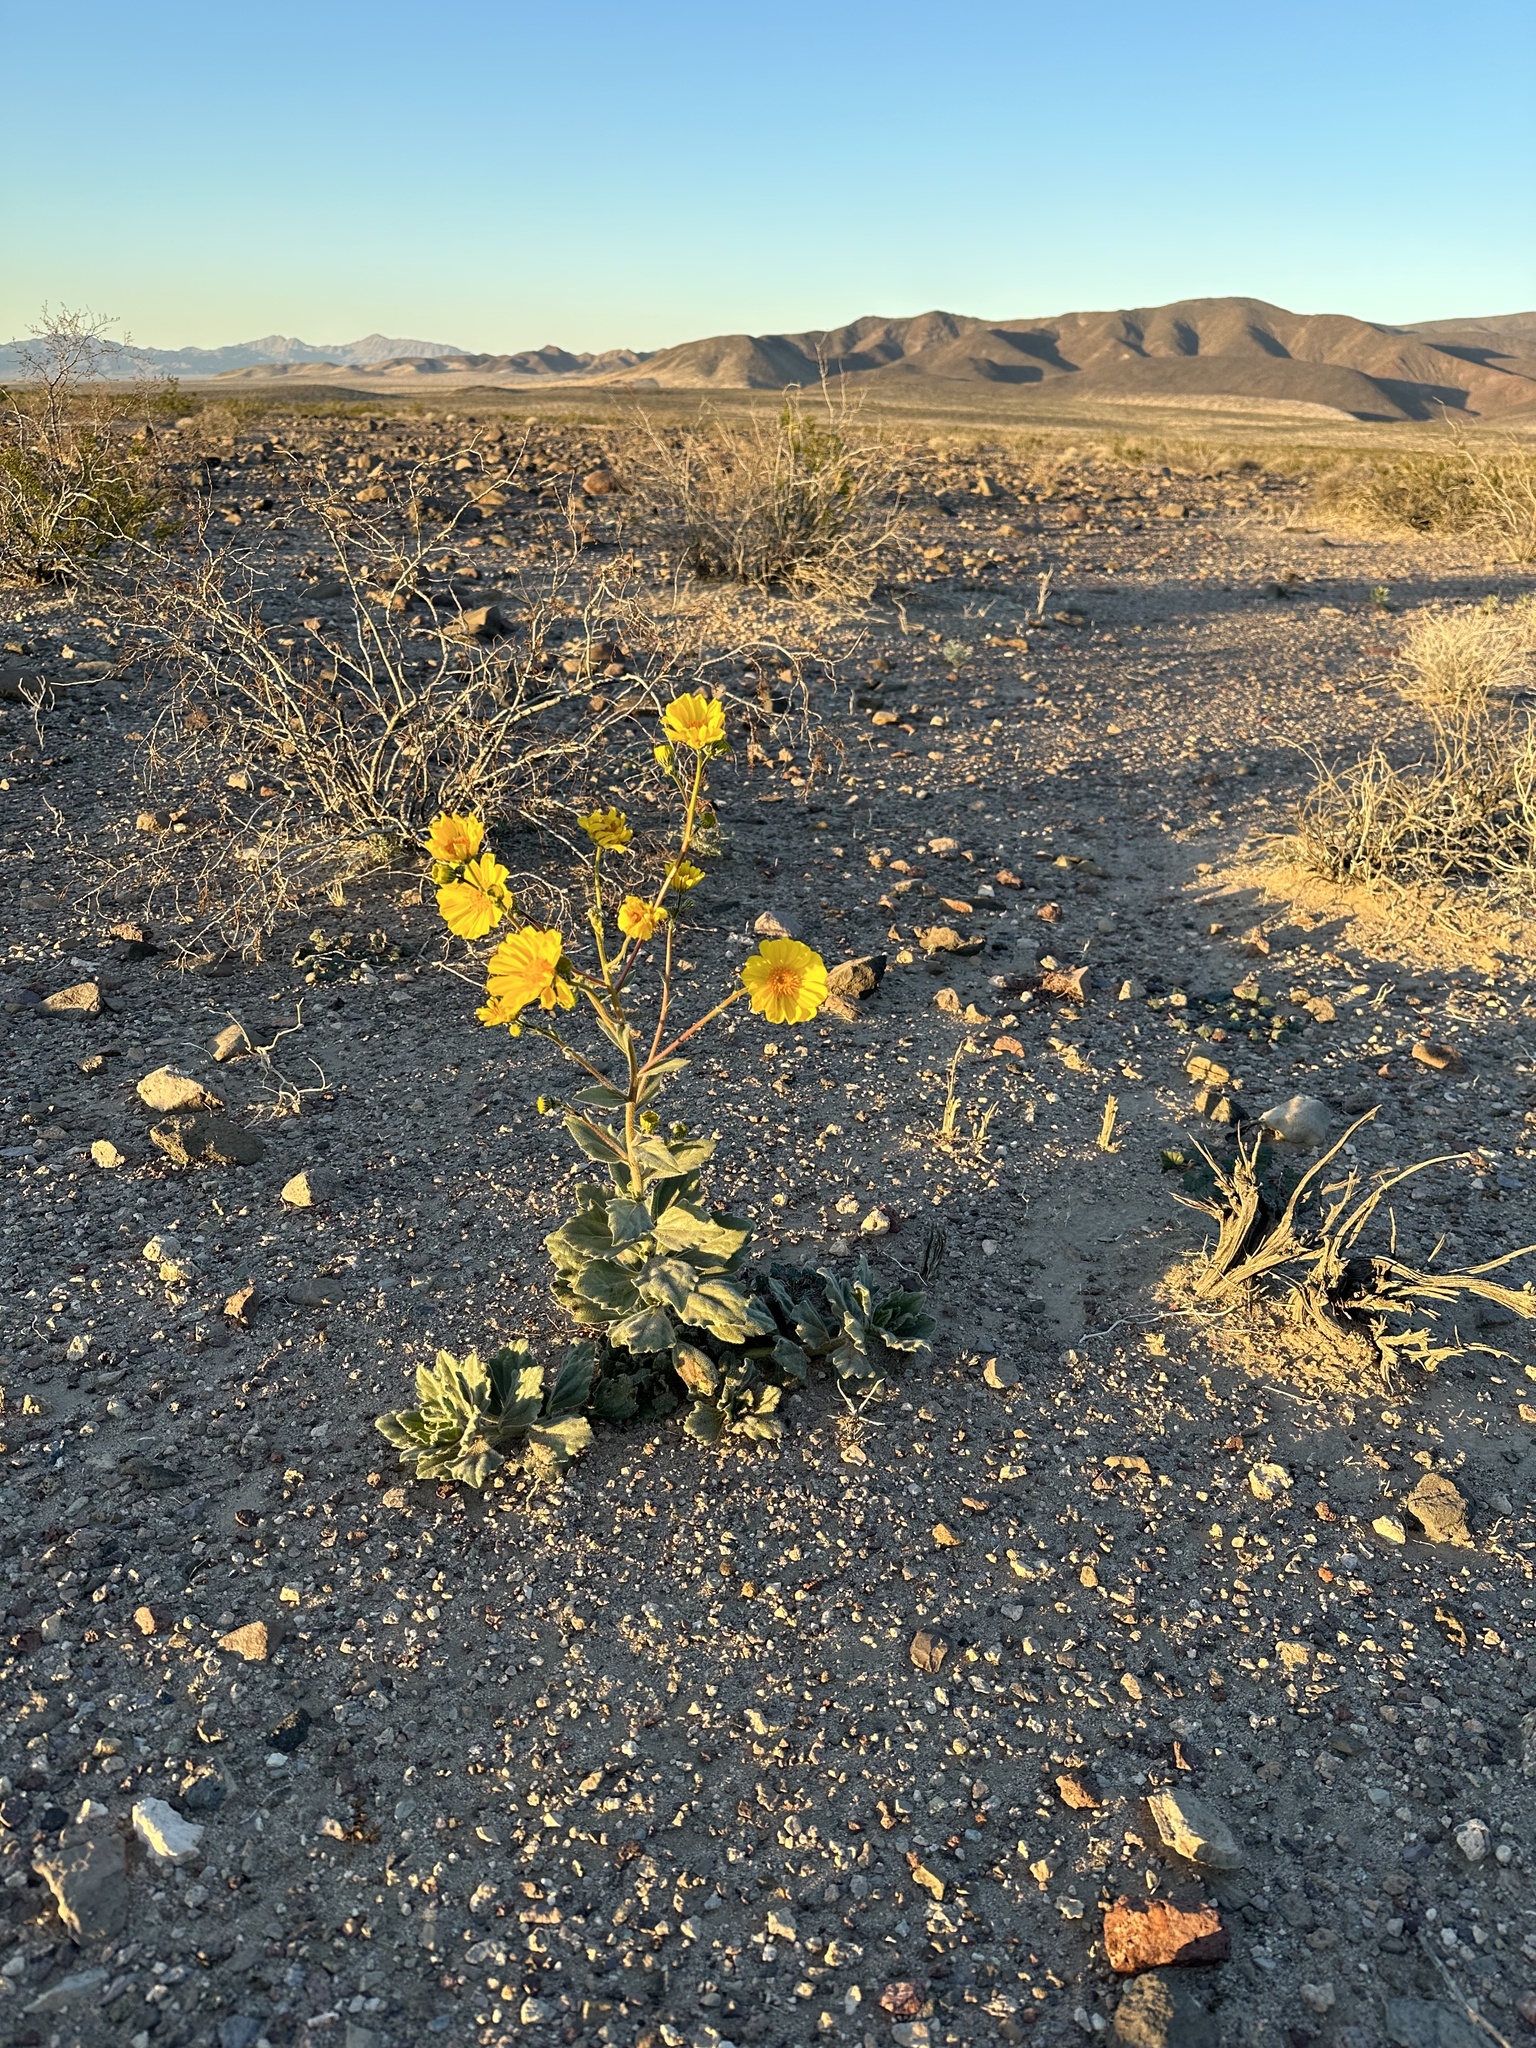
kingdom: Plantae
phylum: Tracheophyta
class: Magnoliopsida
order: Asterales
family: Asteraceae
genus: Geraea
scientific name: Geraea canescens
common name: Desert-gold
